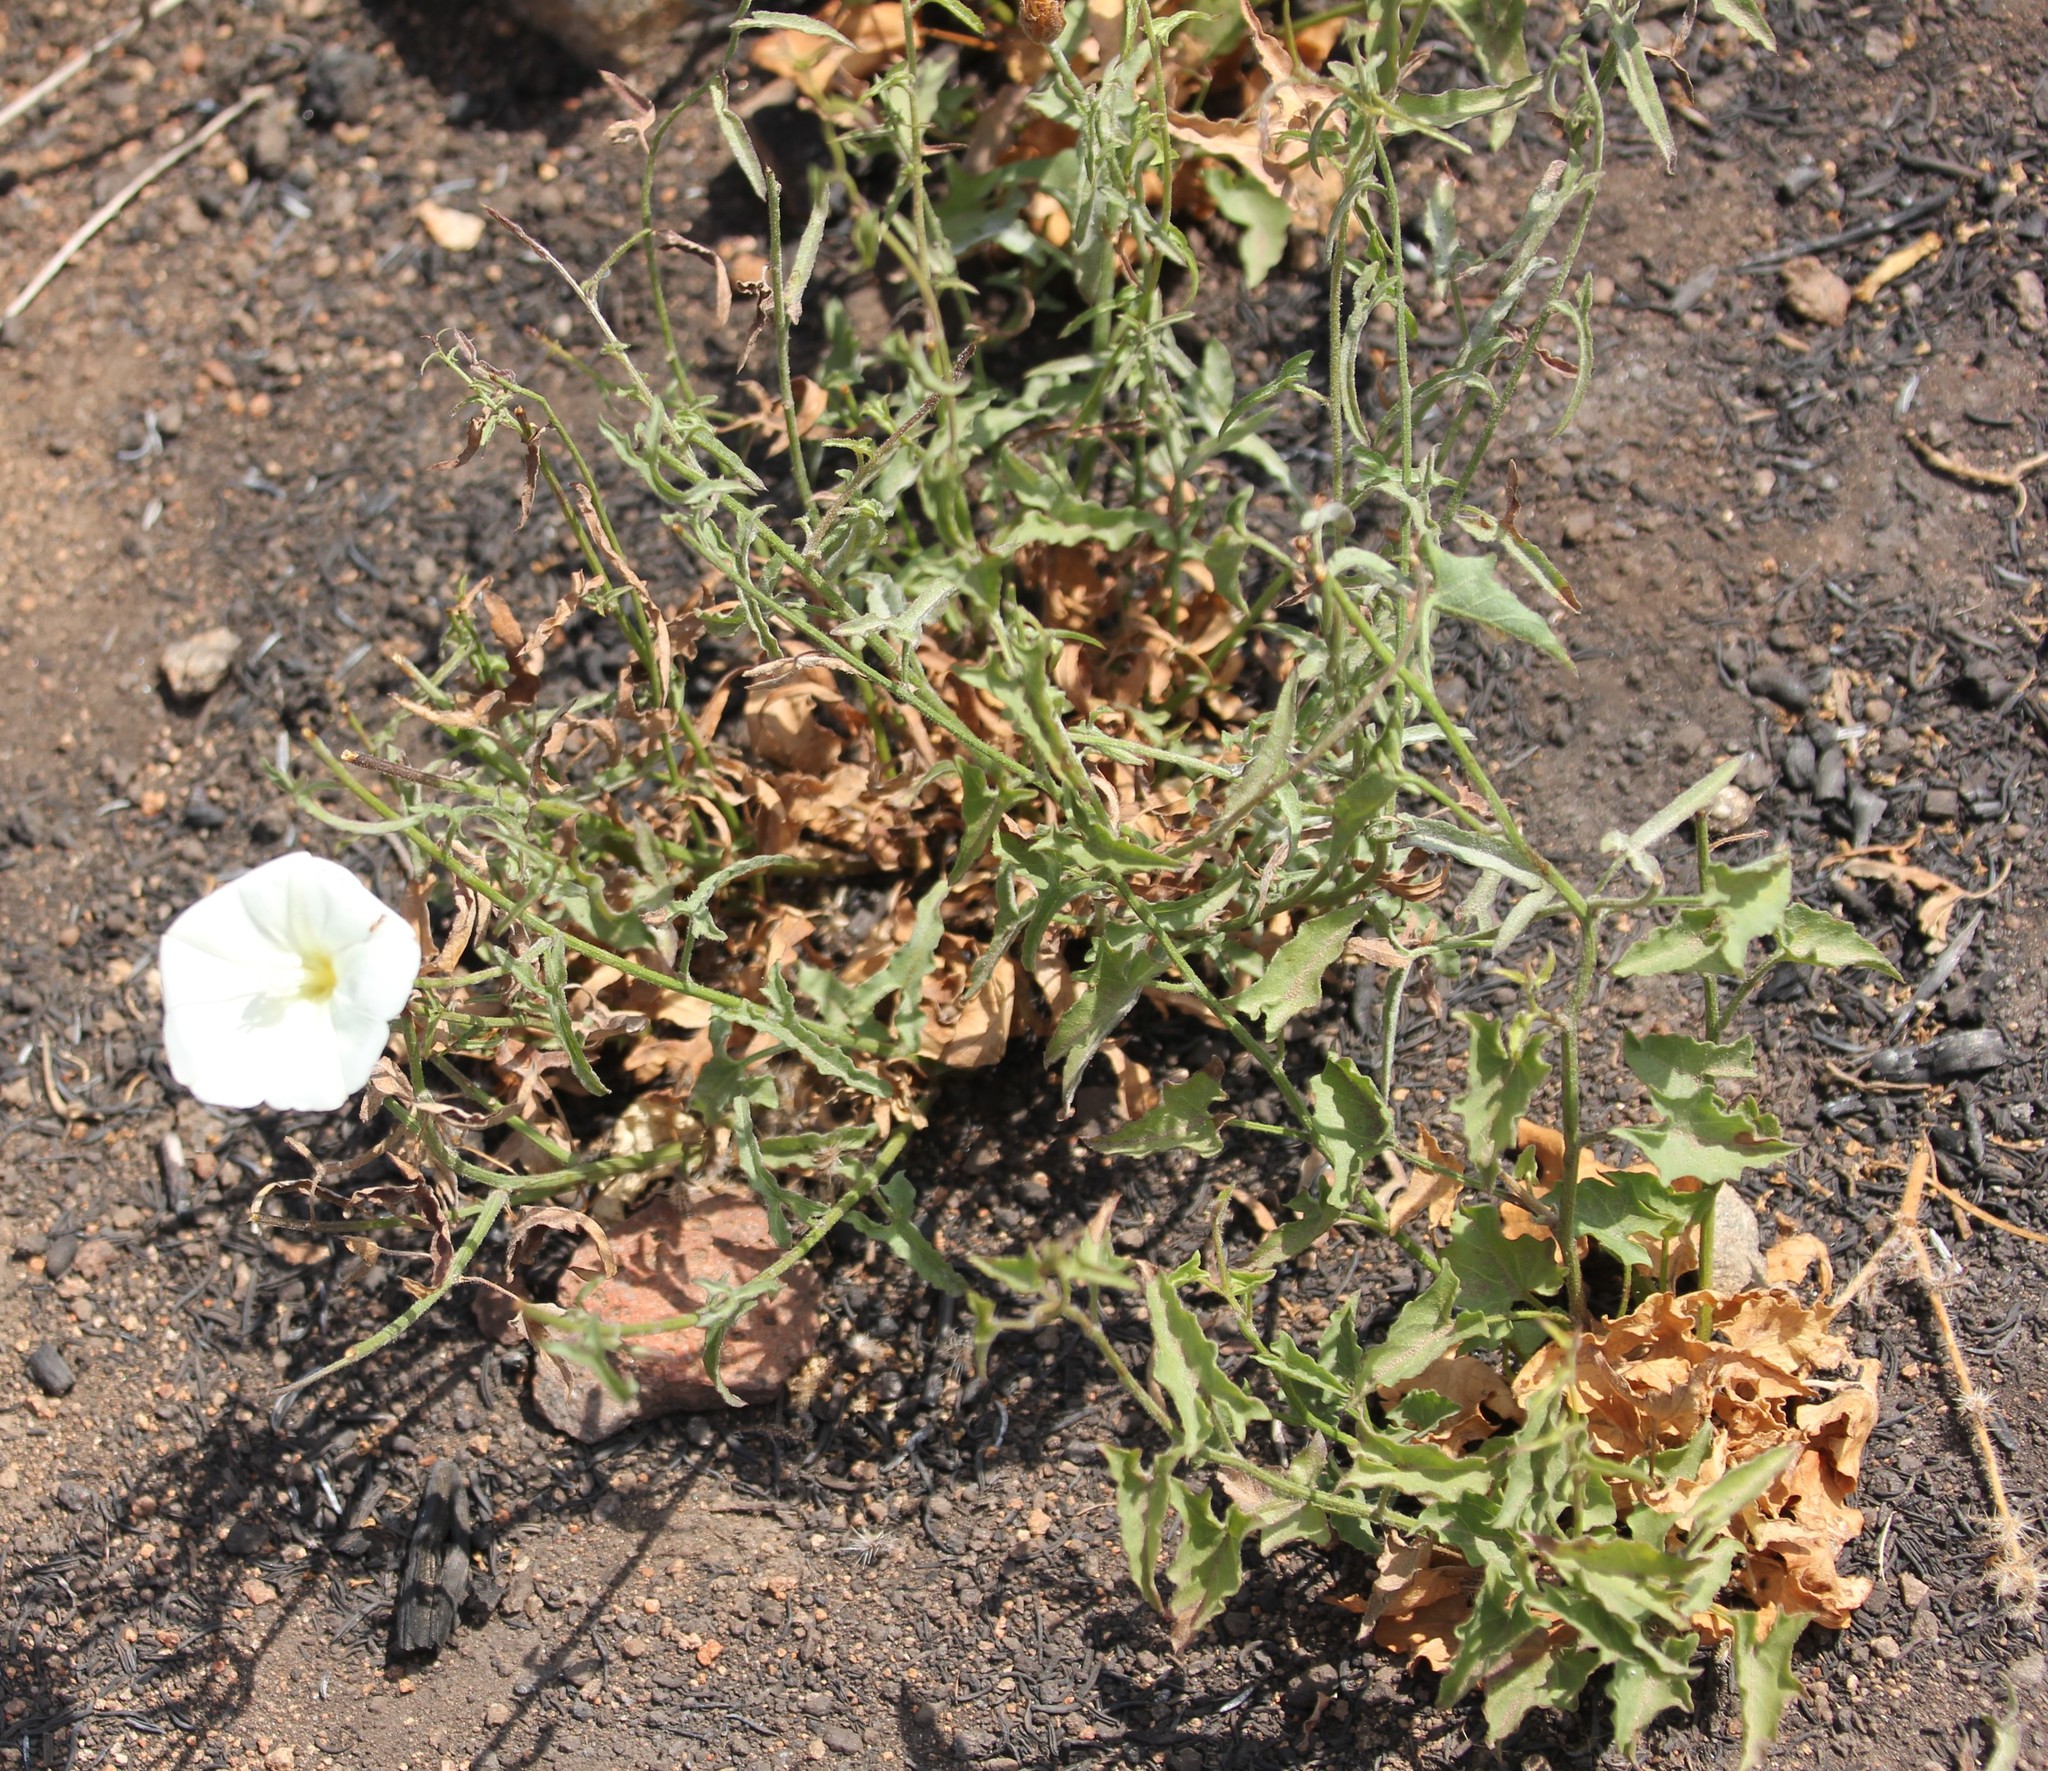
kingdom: Plantae
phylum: Tracheophyta
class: Magnoliopsida
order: Solanales
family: Convolvulaceae
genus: Calystegia
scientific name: Calystegia macrostegia
